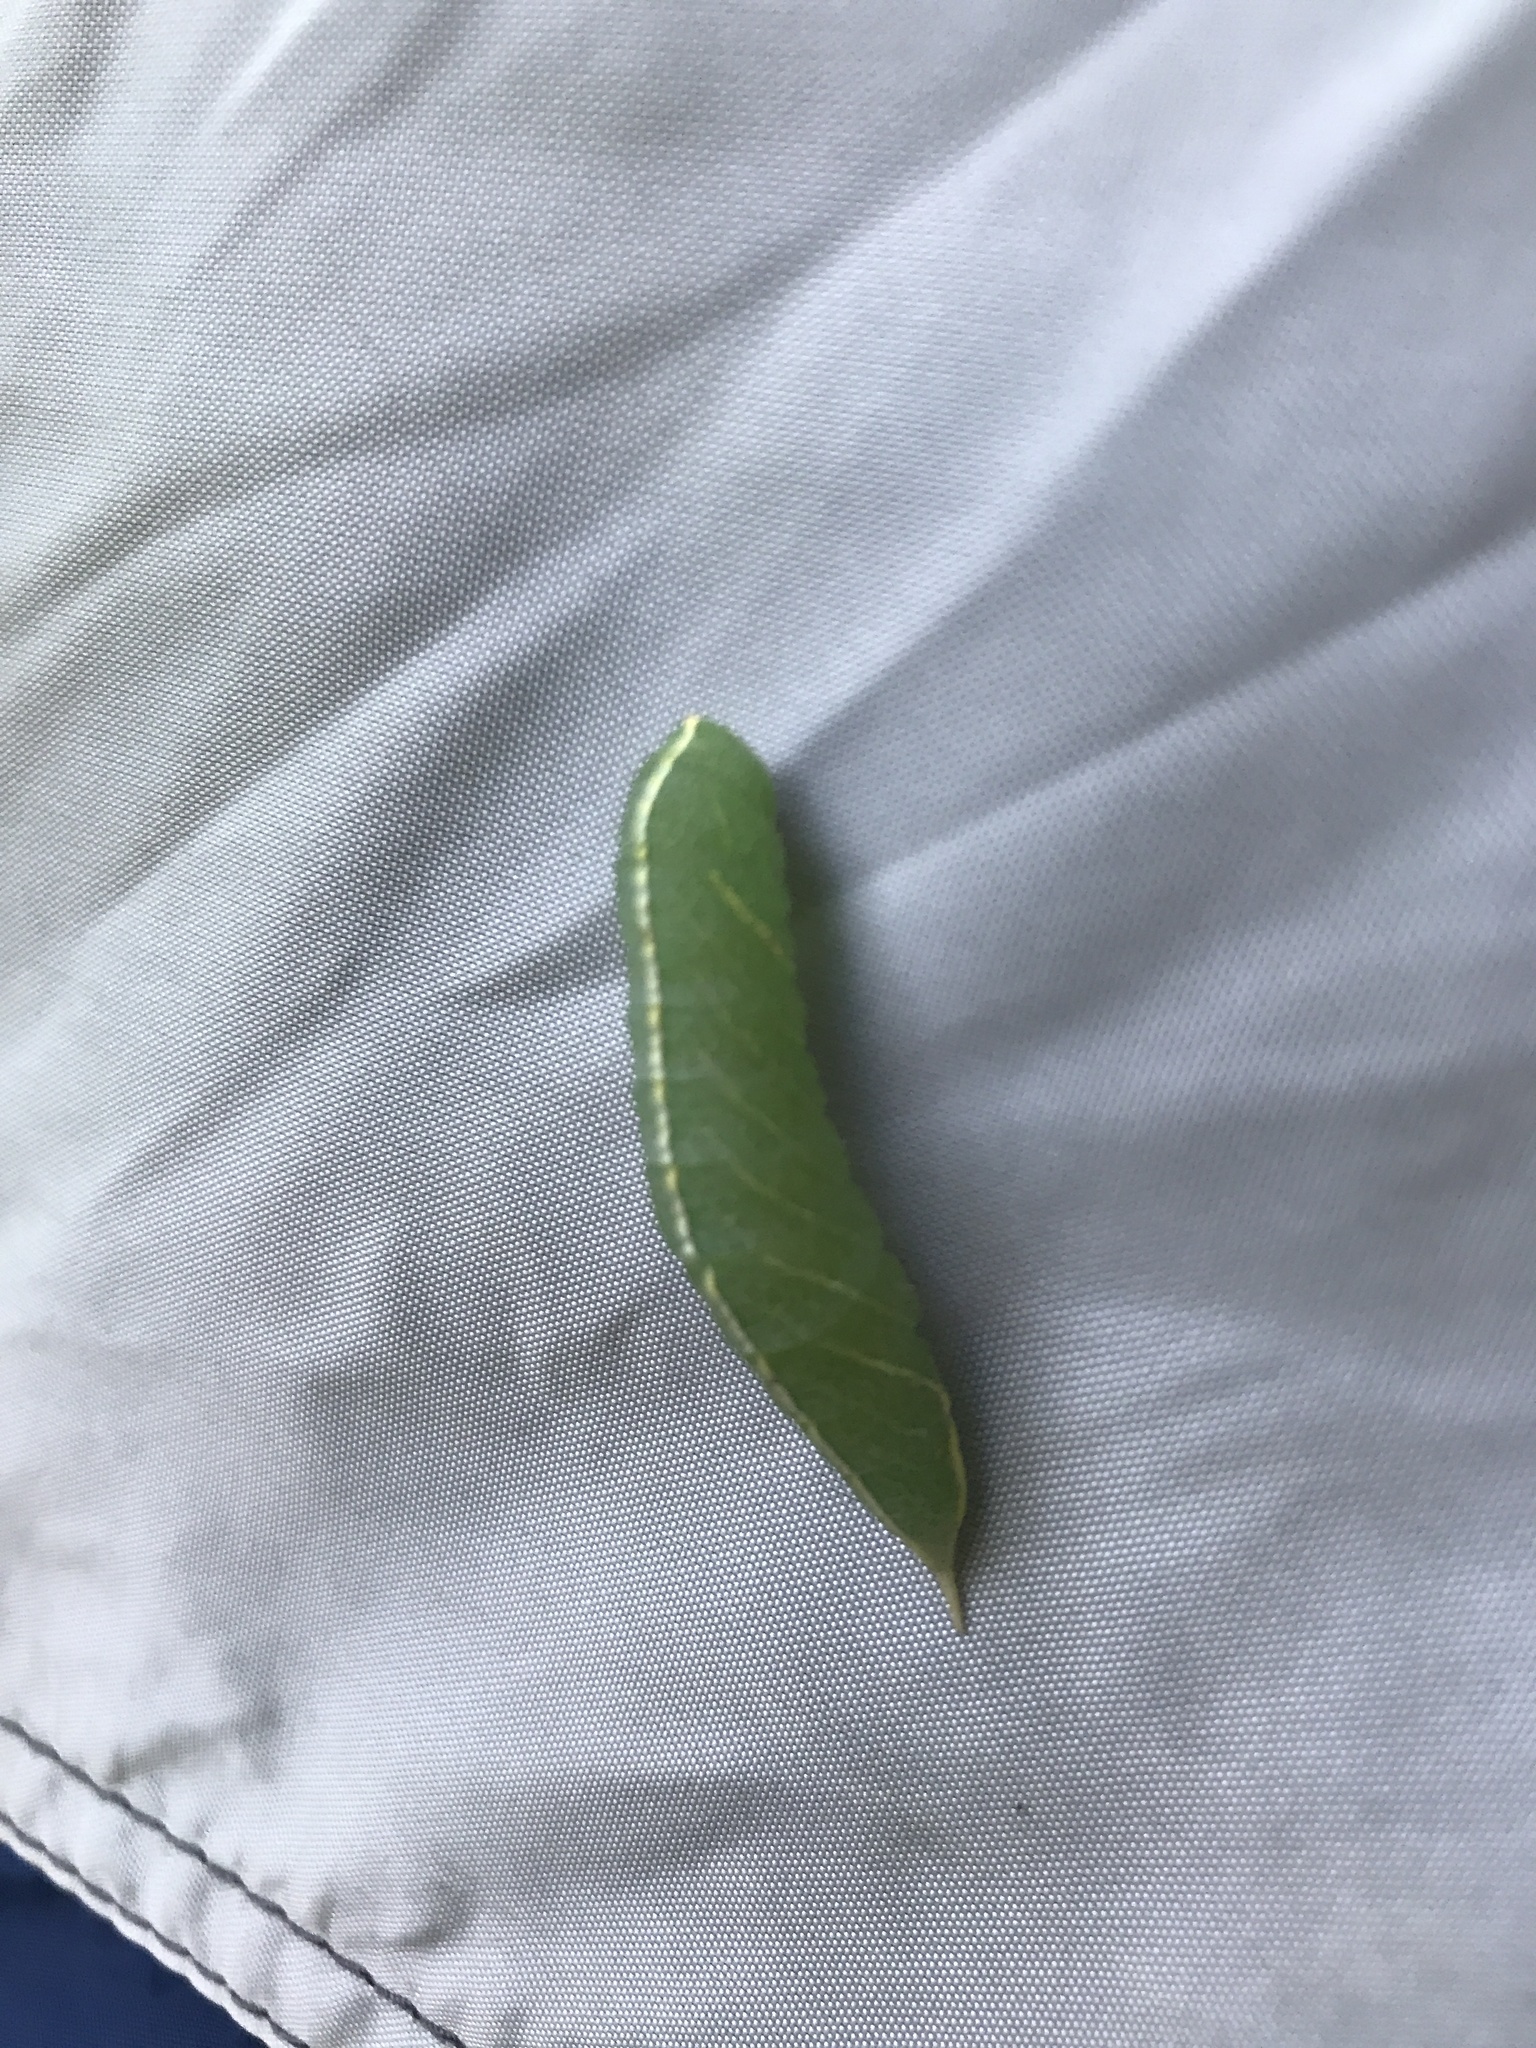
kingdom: Animalia
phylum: Arthropoda
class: Insecta
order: Lepidoptera
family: Notodontidae
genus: Macrurocampa
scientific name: Macrurocampa marthesia
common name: Mottled prominent
